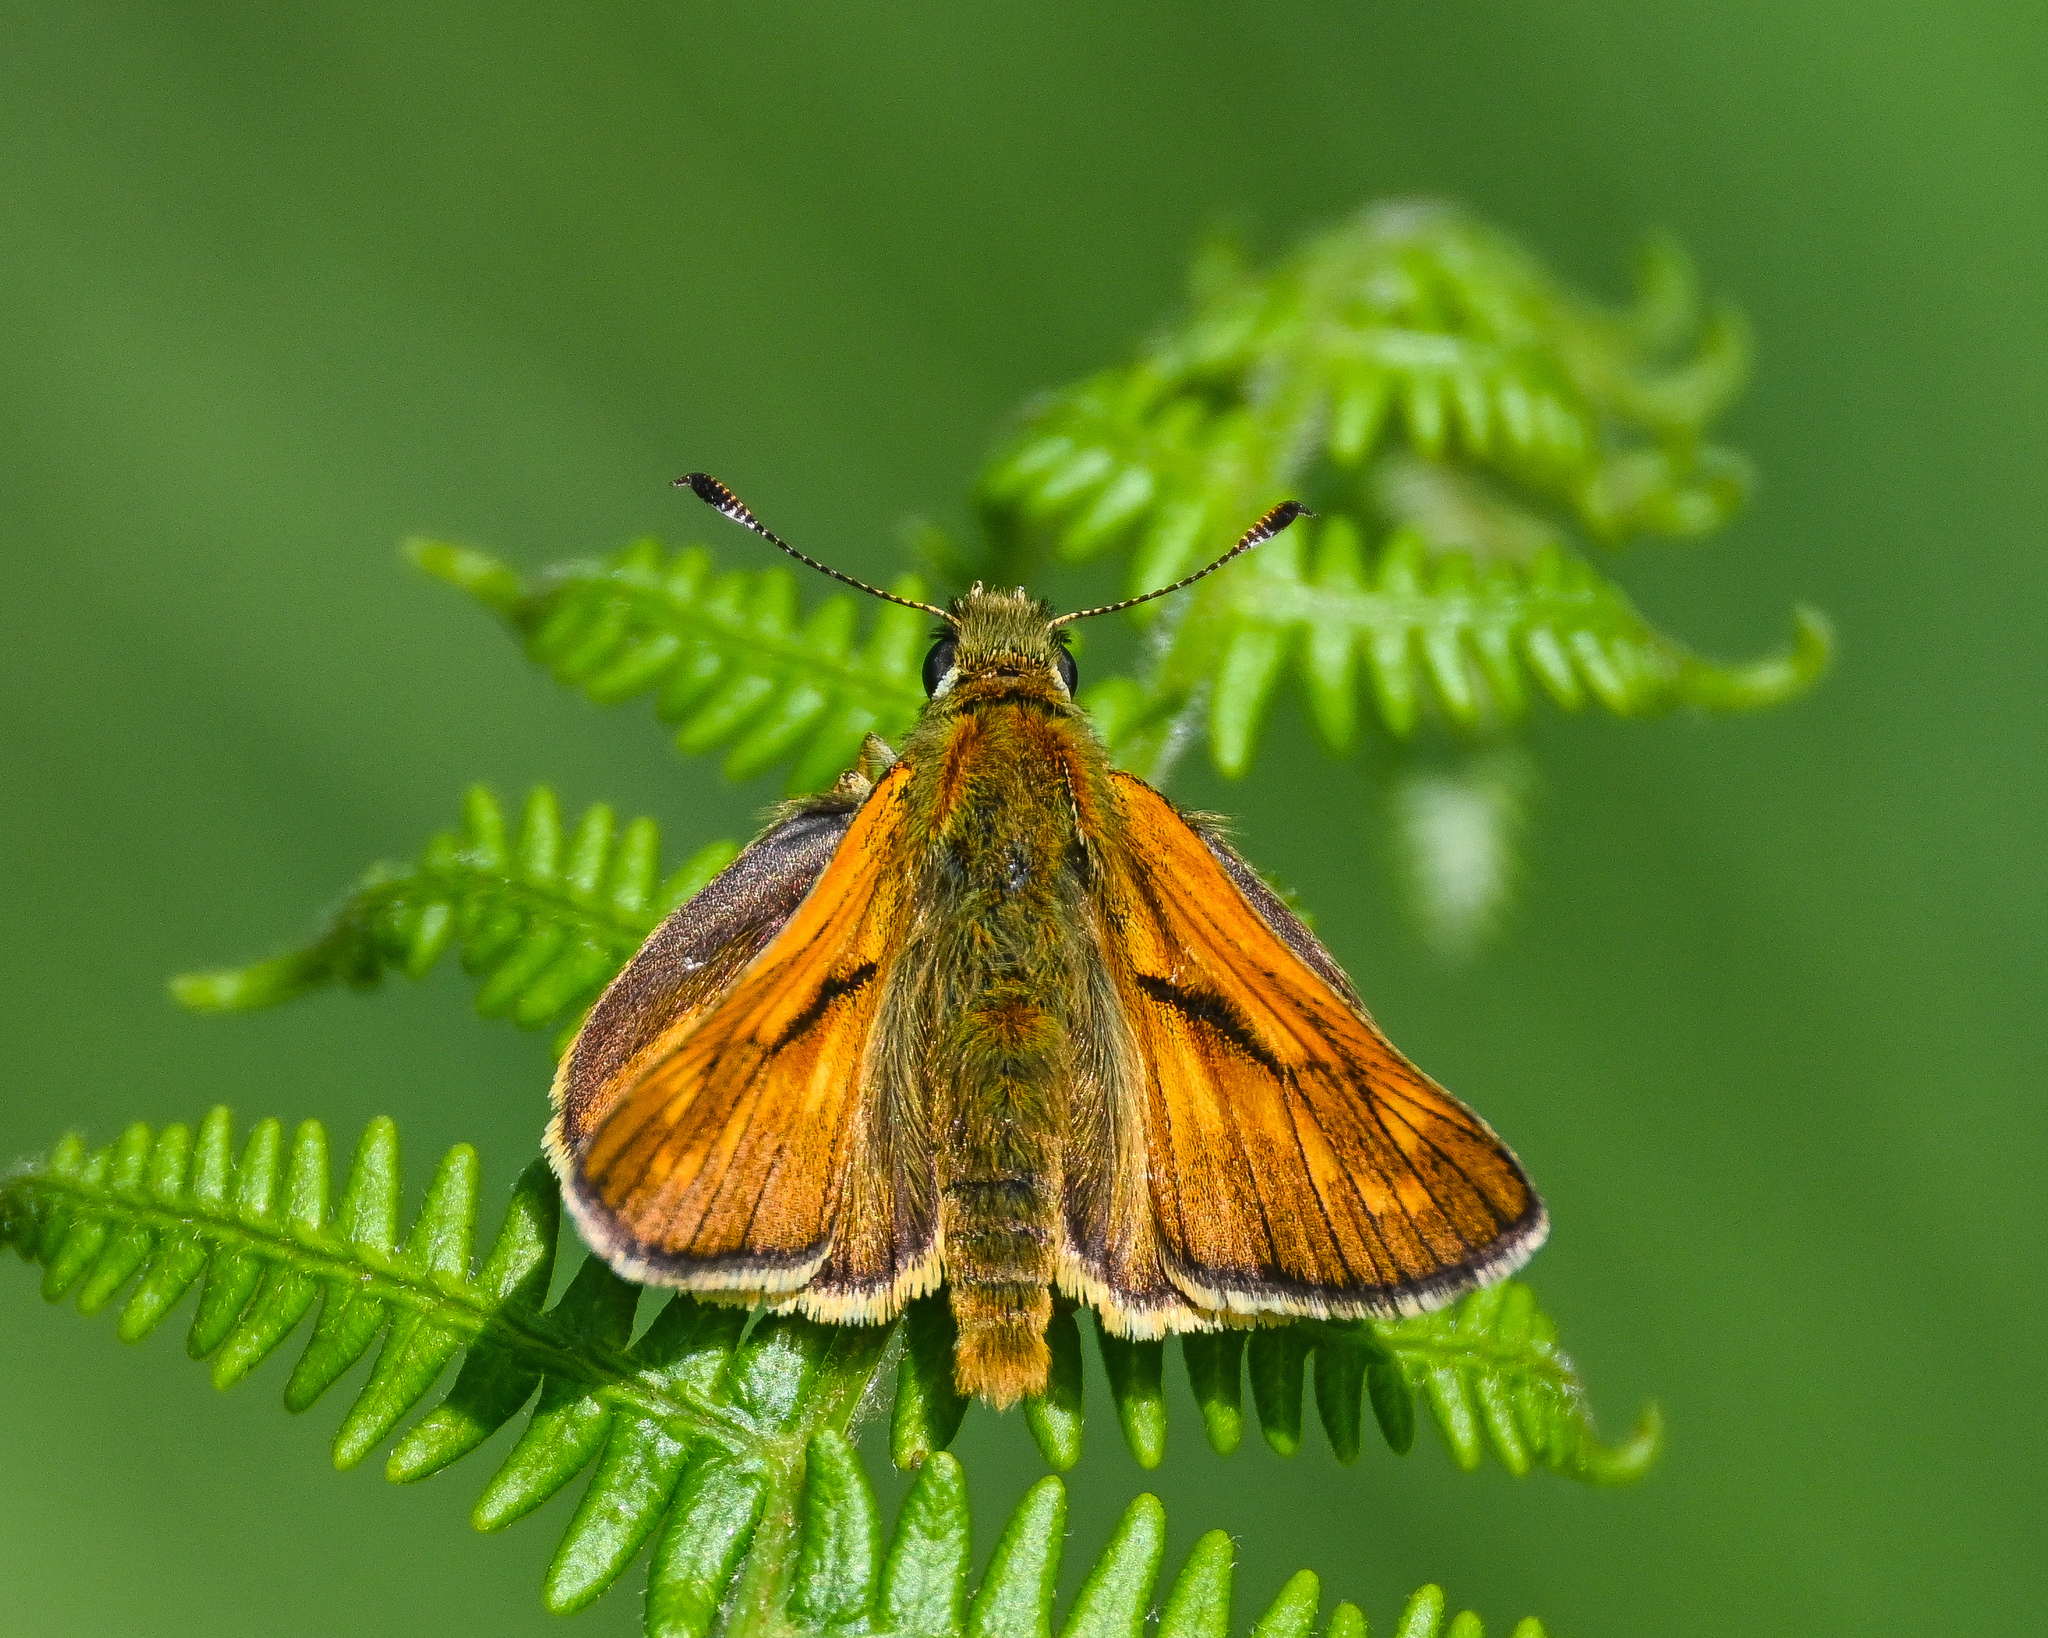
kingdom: Animalia
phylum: Arthropoda
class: Insecta
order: Lepidoptera
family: Hesperiidae
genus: Ochlodes
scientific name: Ochlodes venata
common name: Large skipper
